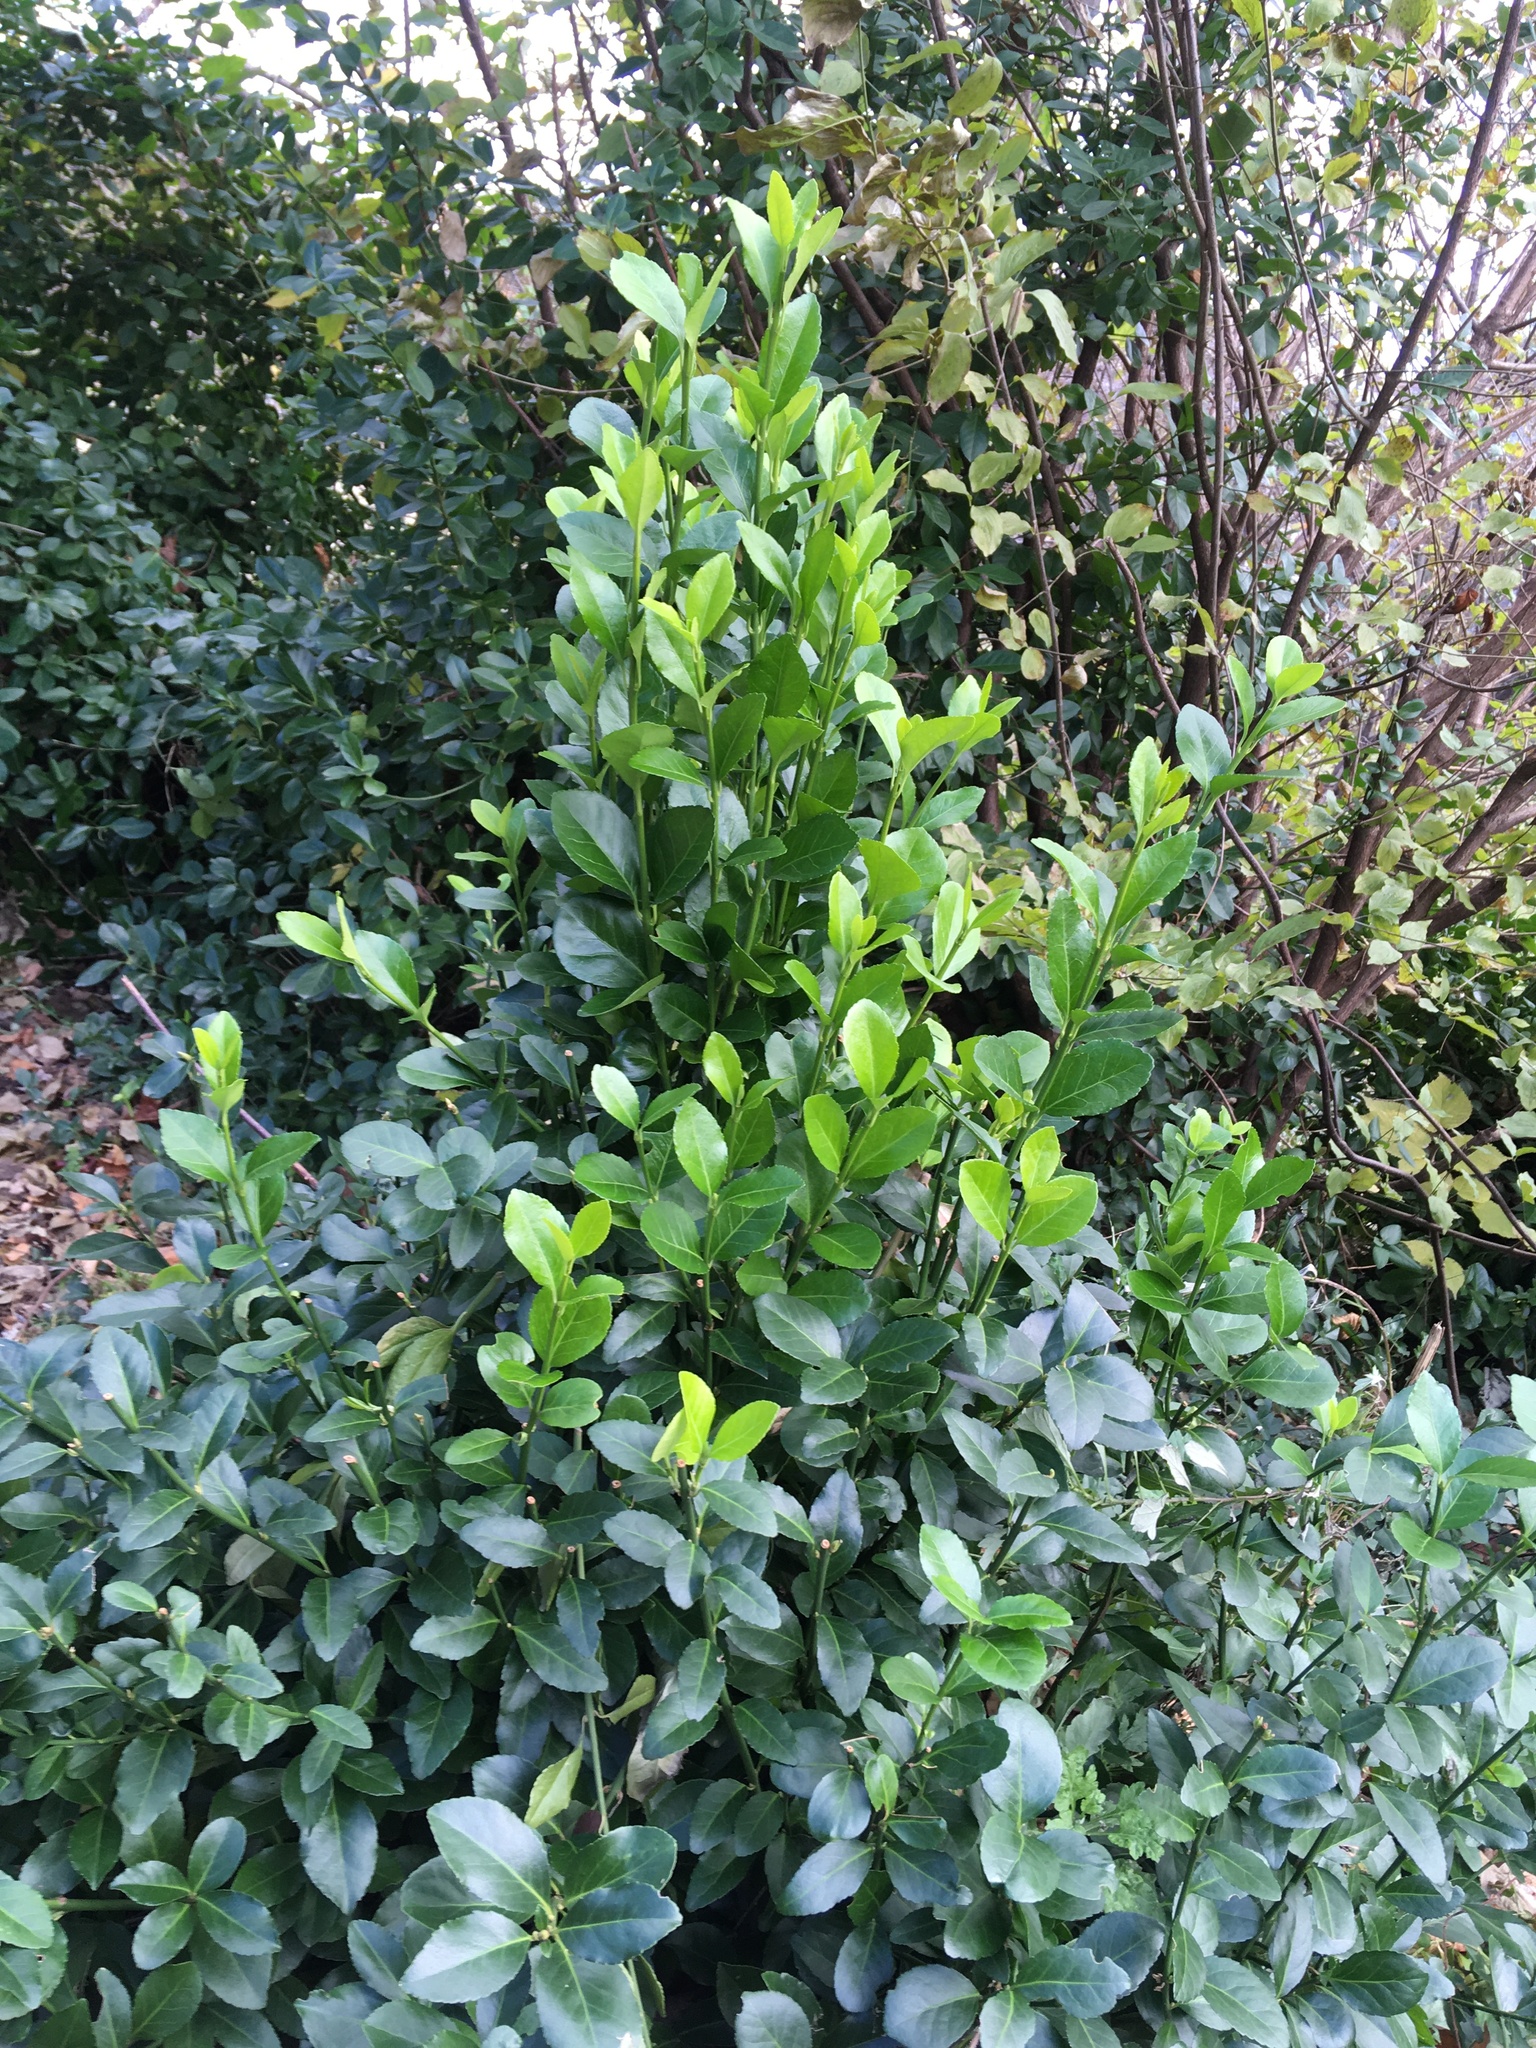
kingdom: Plantae
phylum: Tracheophyta
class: Magnoliopsida
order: Celastrales
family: Celastraceae
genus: Euonymus
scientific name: Euonymus fortunei
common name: Climbing euonymus
